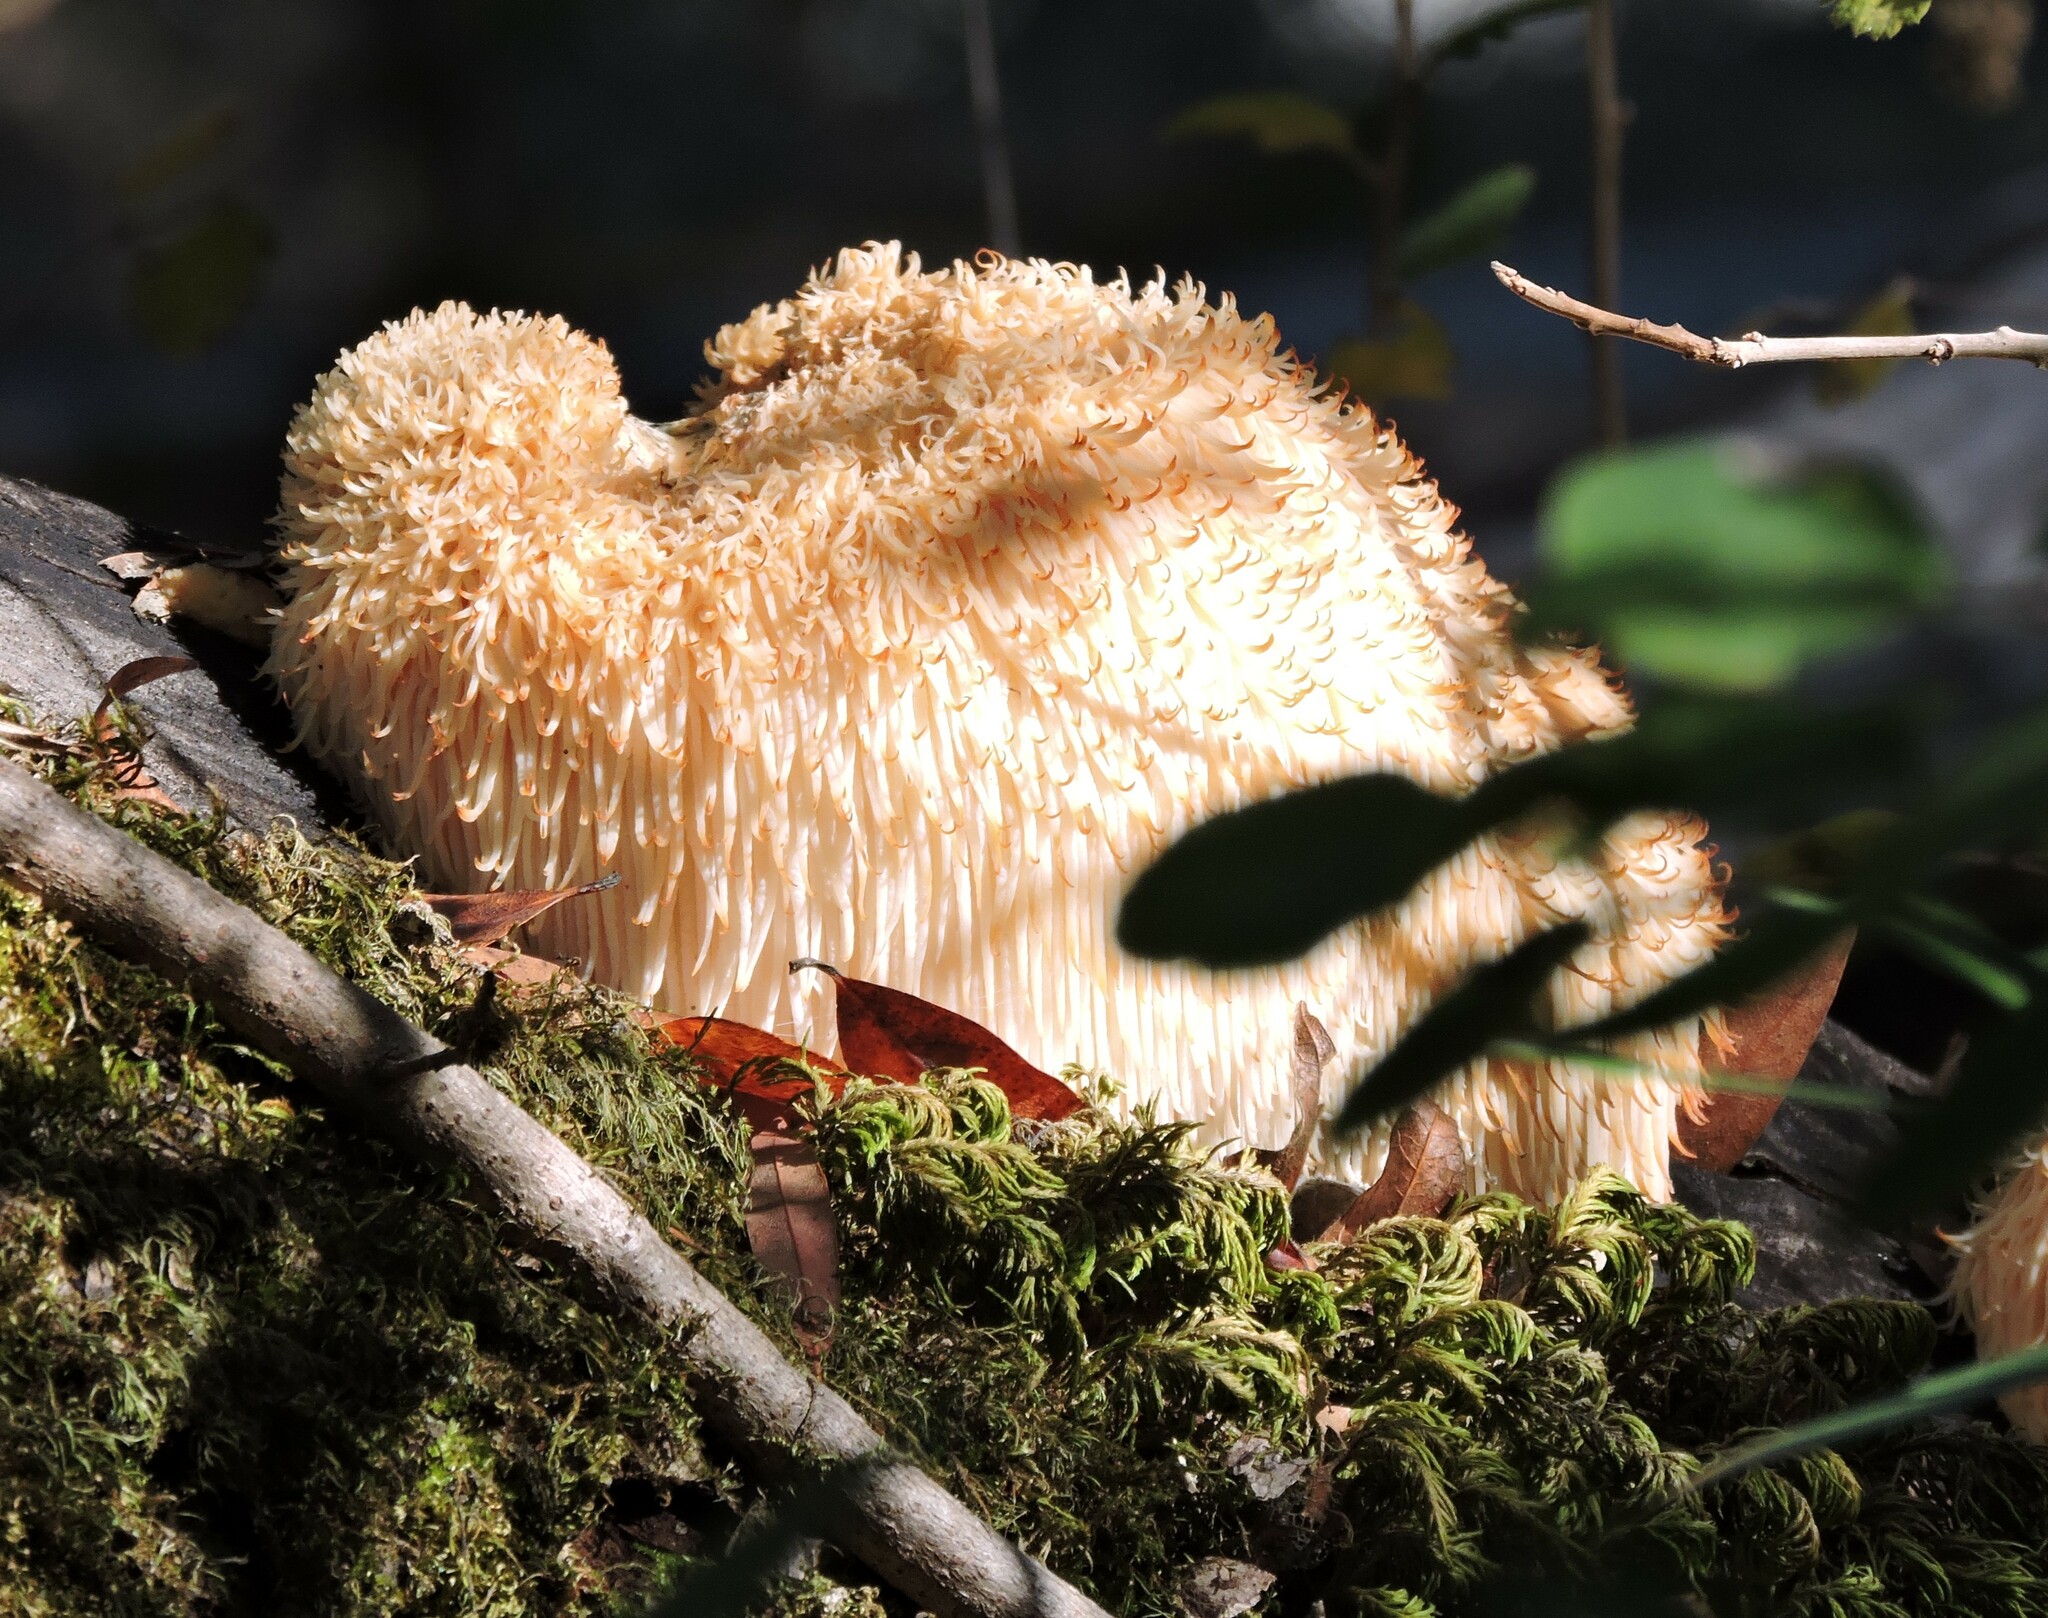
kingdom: Fungi
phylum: Basidiomycota
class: Agaricomycetes
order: Russulales
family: Hericiaceae
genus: Hericium
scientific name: Hericium erinaceus
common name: Bearded tooth
